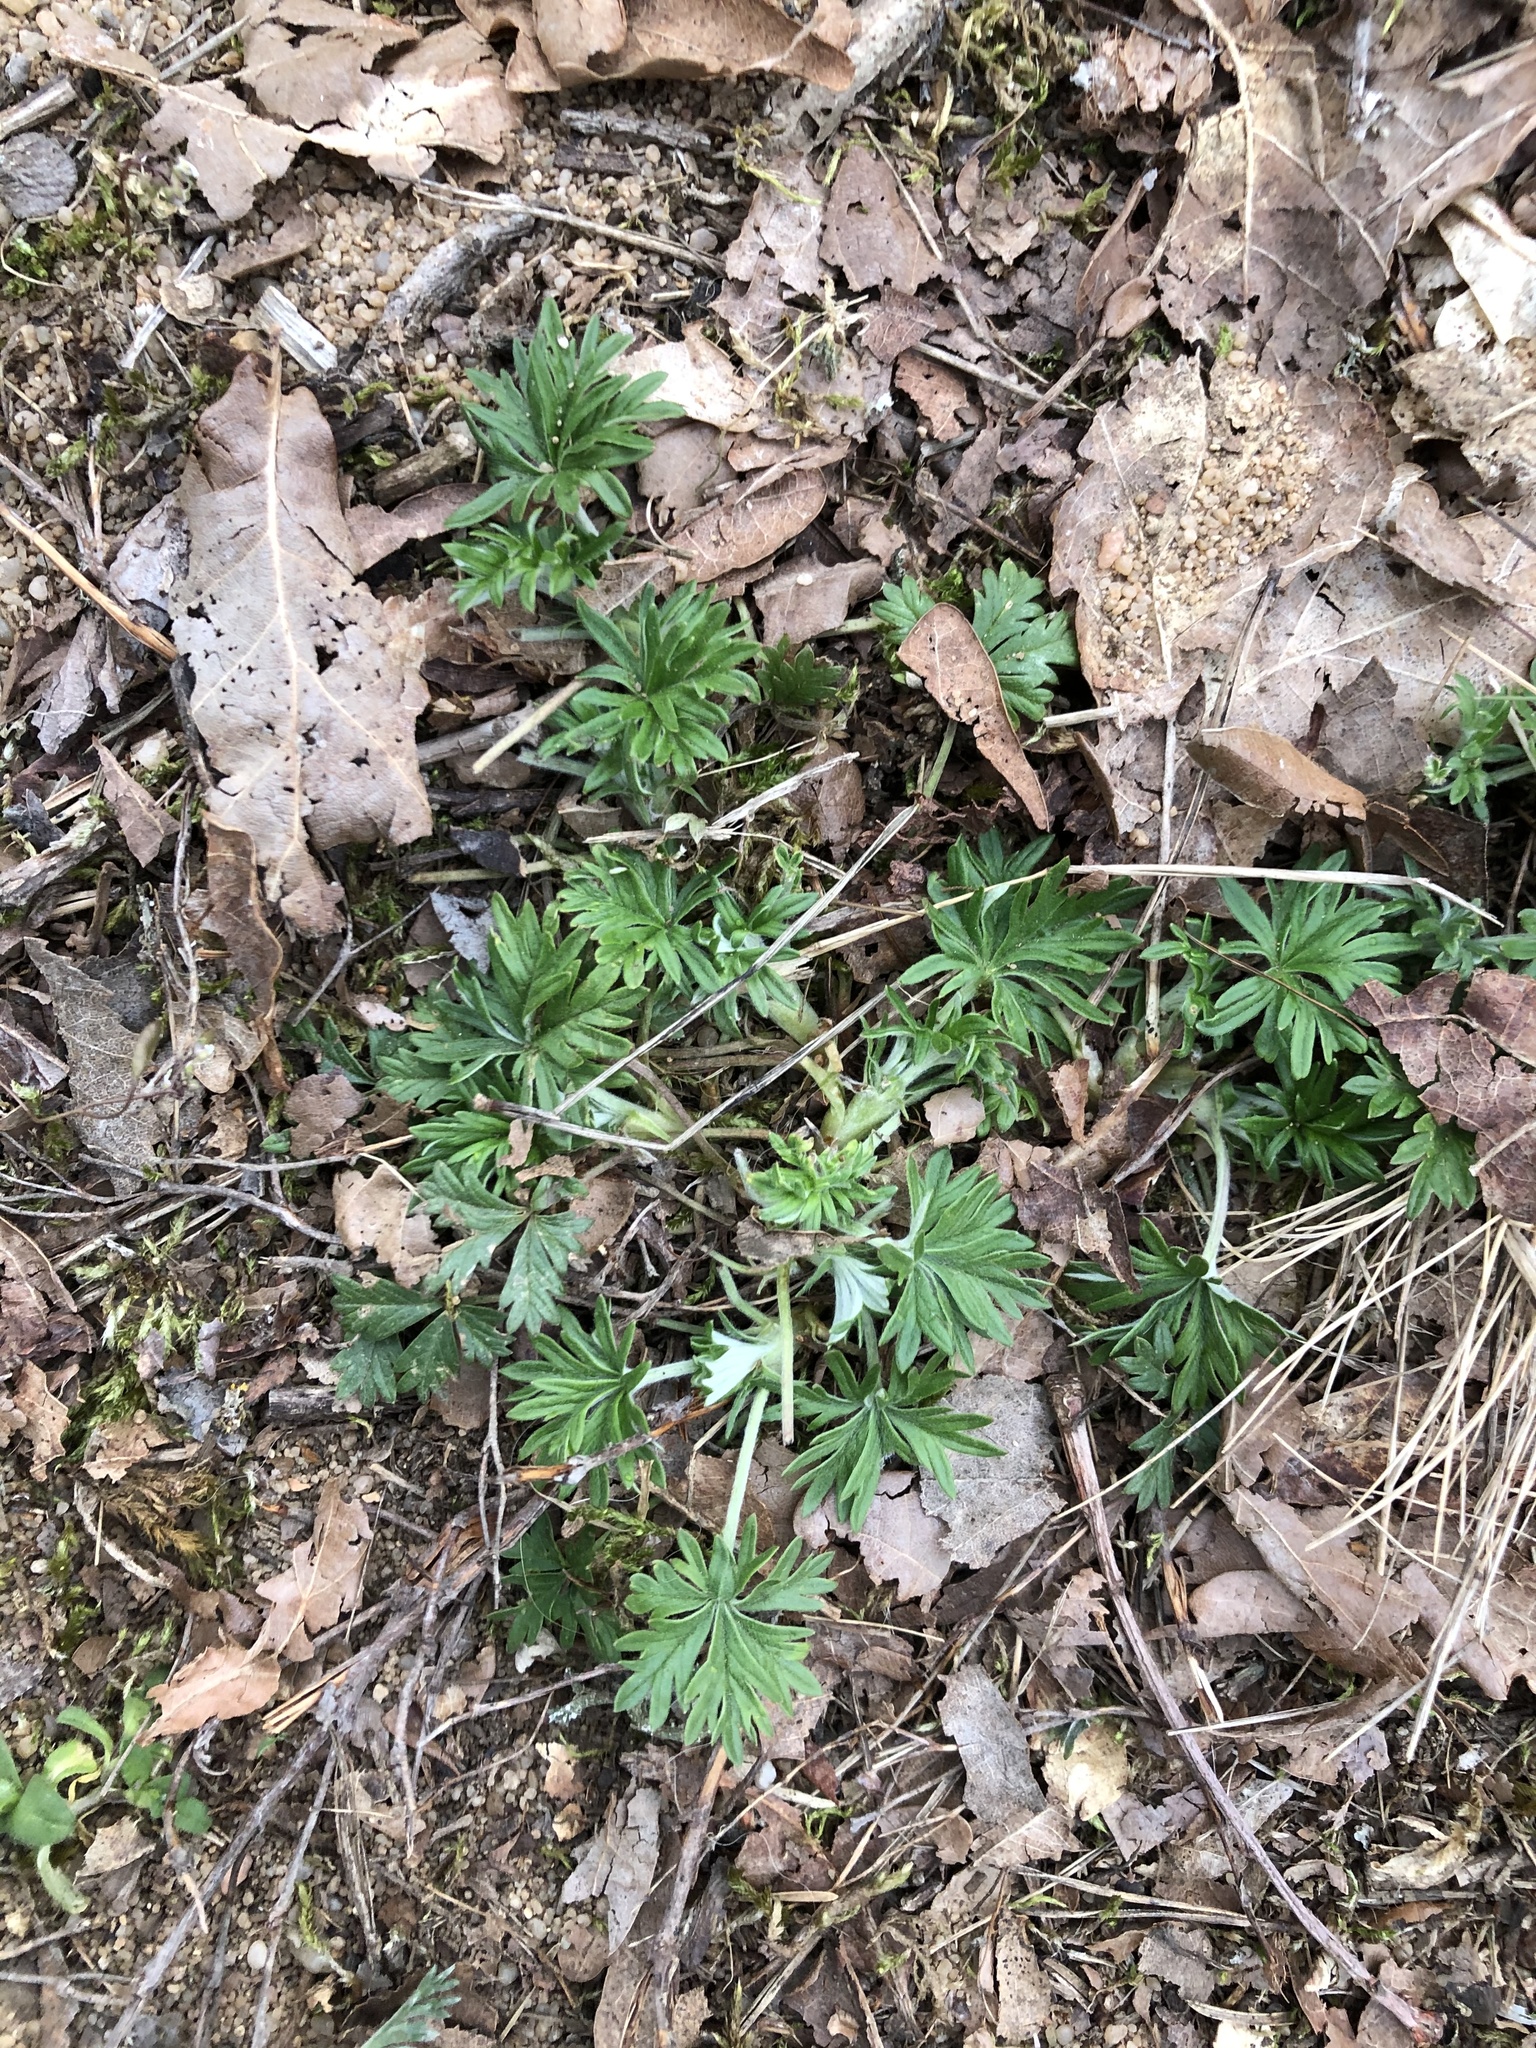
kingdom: Plantae
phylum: Tracheophyta
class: Magnoliopsida
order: Rosales
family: Rosaceae
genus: Potentilla
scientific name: Potentilla argentea
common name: Hoary cinquefoil
